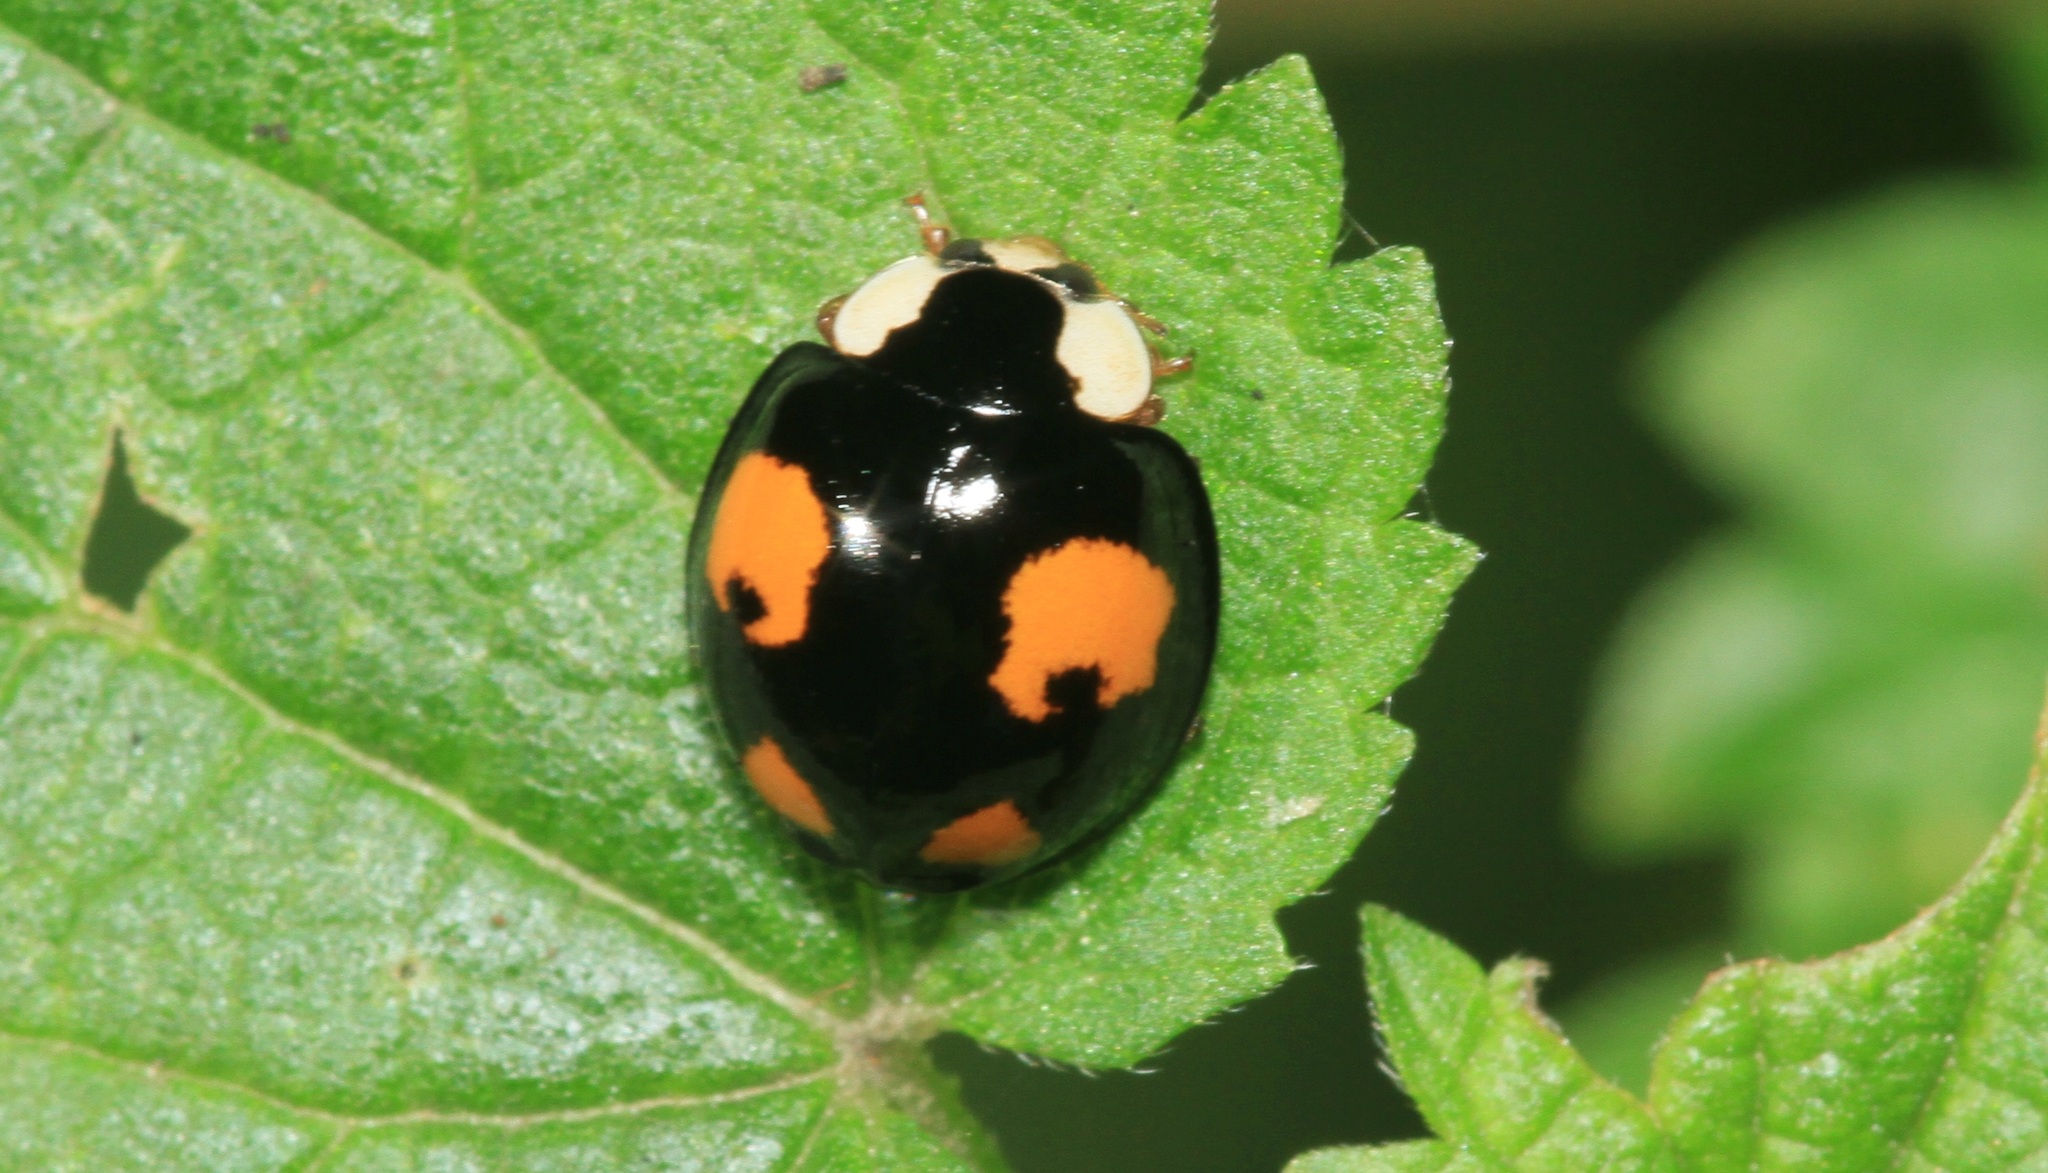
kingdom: Animalia
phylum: Arthropoda
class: Insecta
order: Coleoptera
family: Coccinellidae
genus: Harmonia
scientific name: Harmonia axyridis
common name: Harlequin ladybird
